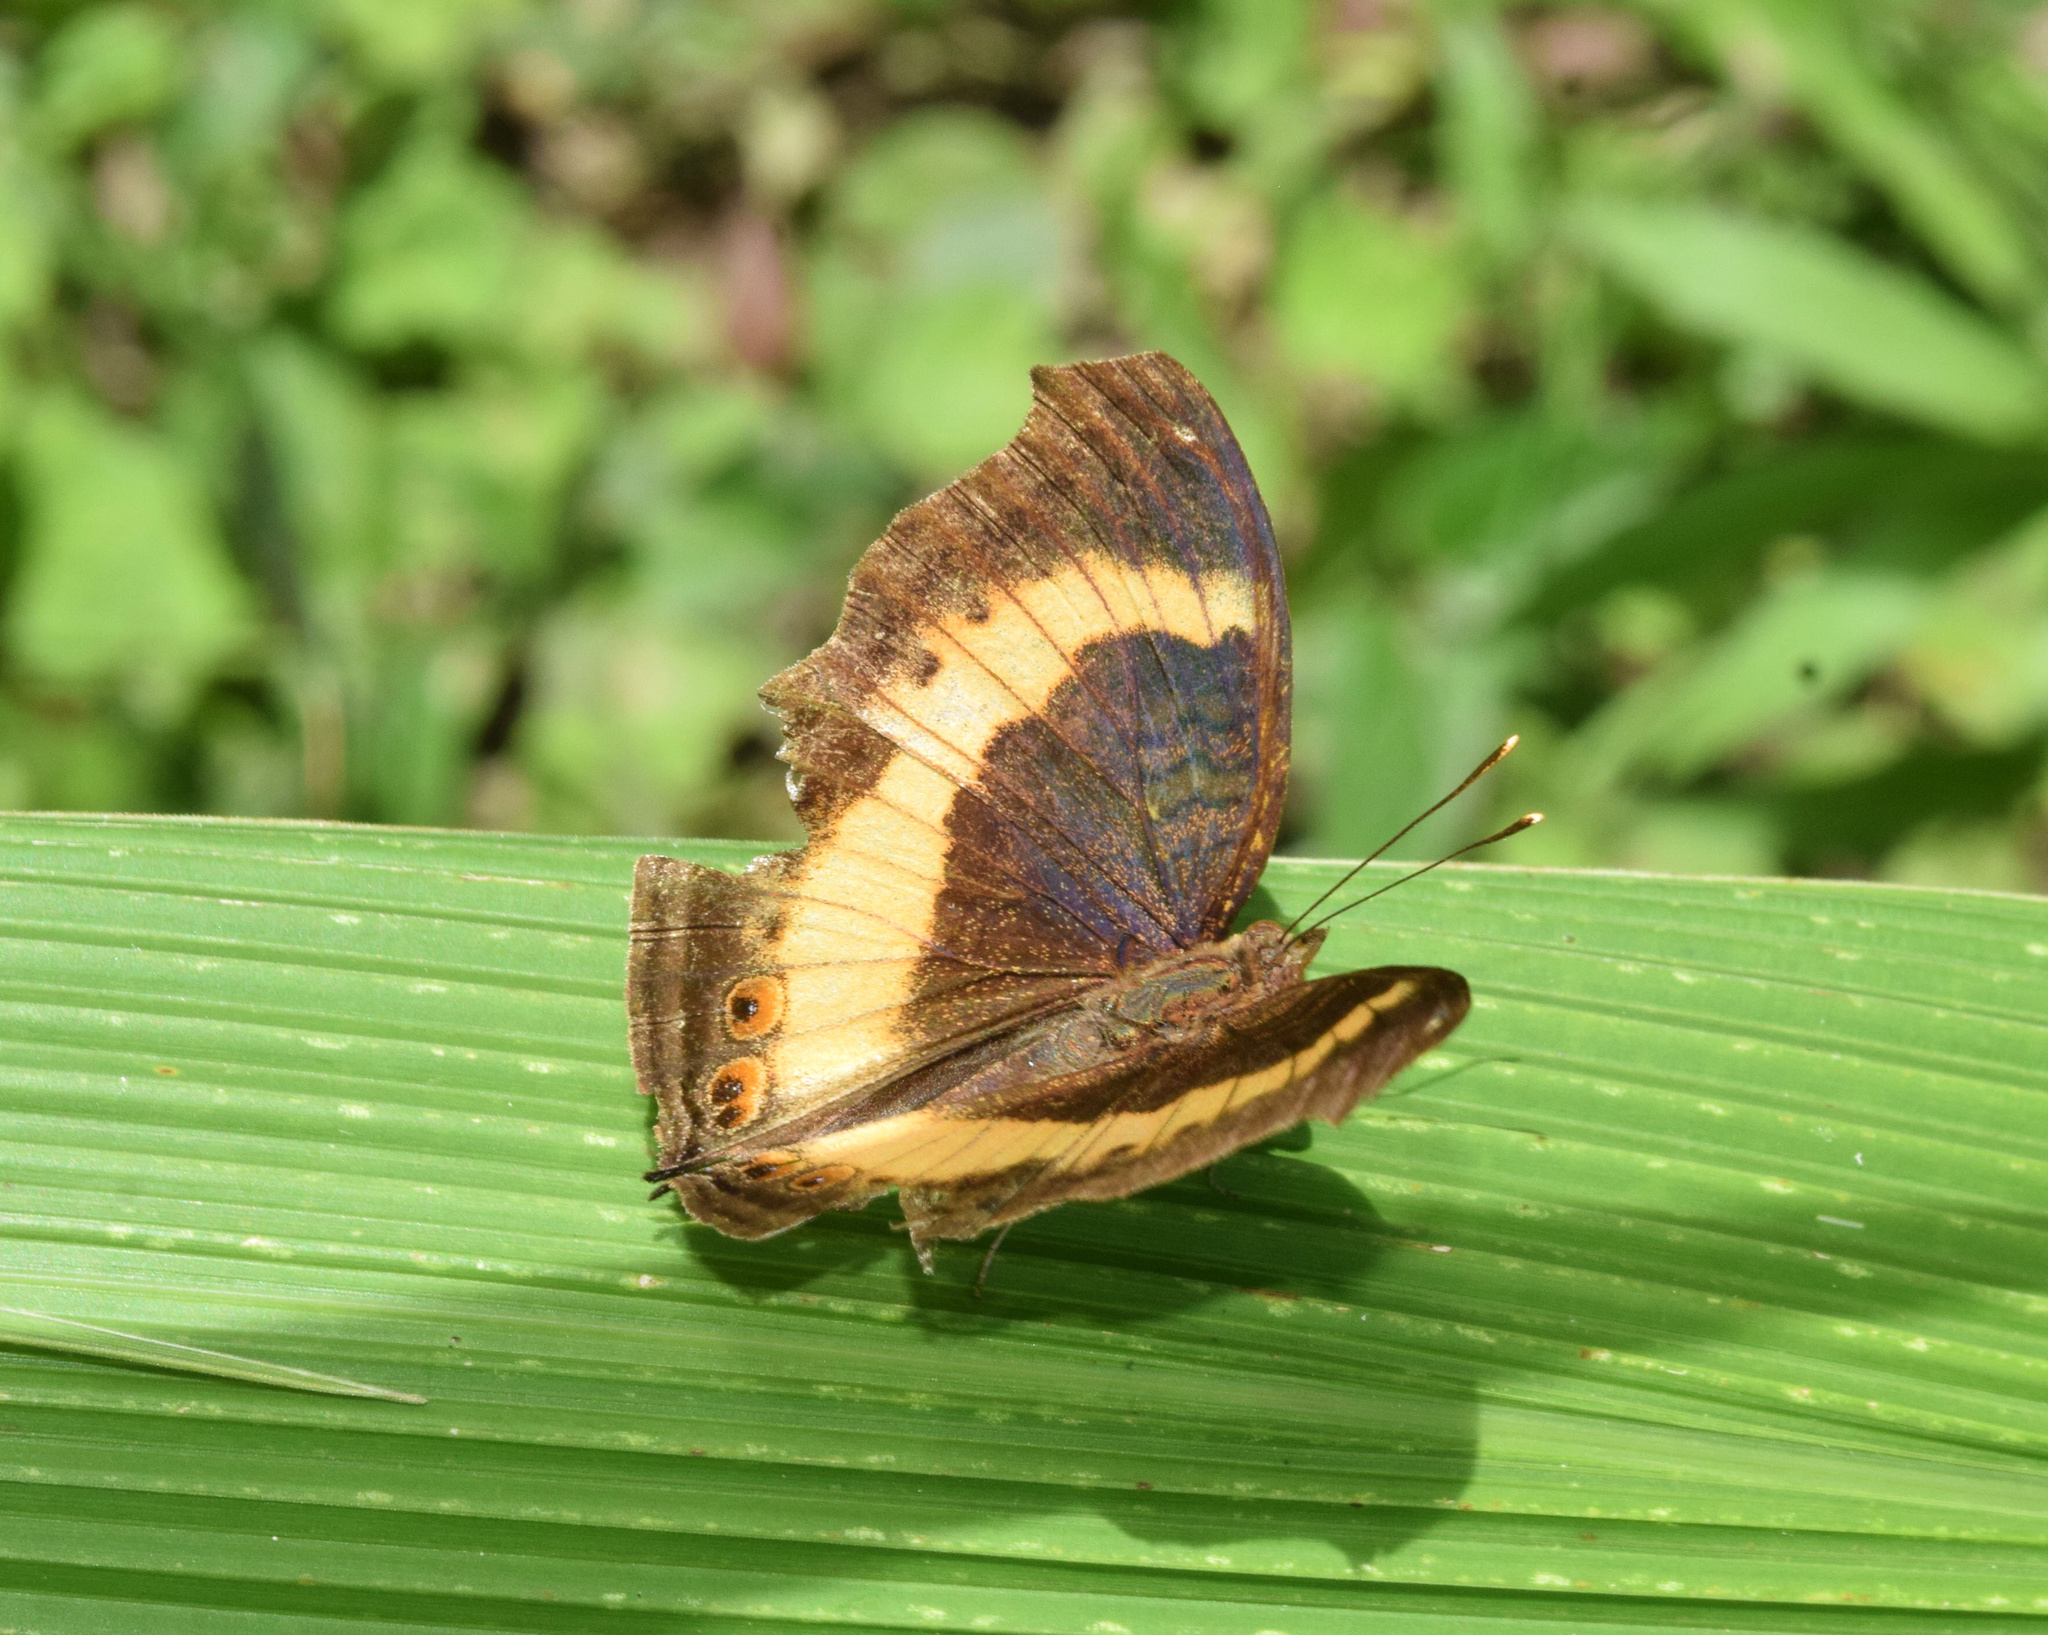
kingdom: Animalia
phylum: Arthropoda
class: Insecta
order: Lepidoptera
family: Nymphalidae
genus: Junonia
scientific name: Junonia terea
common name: Soldier pansy
